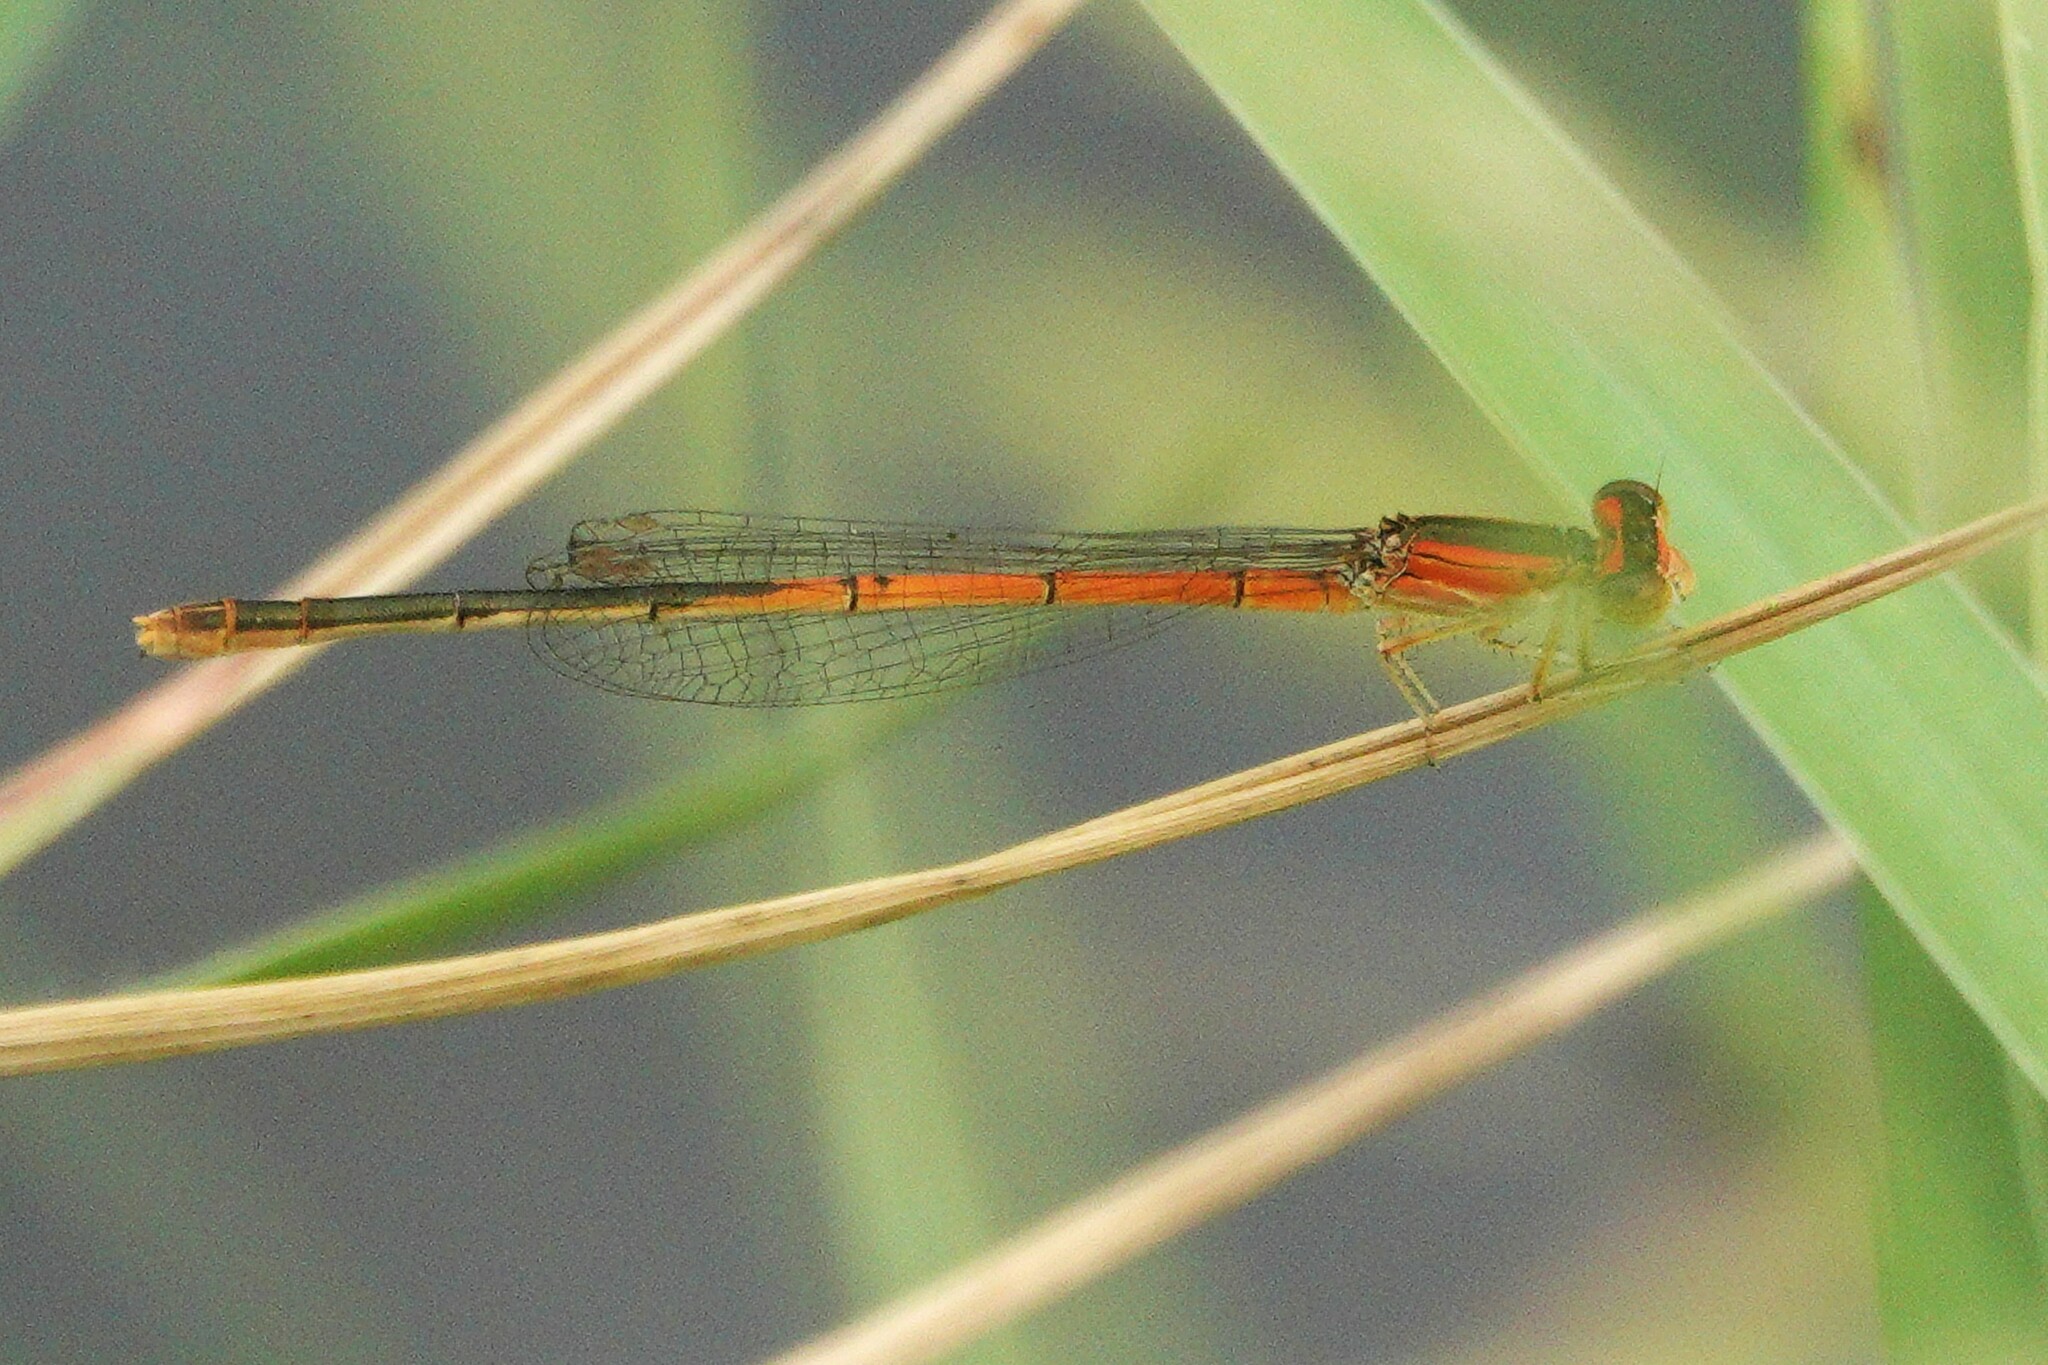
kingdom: Animalia
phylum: Arthropoda
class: Insecta
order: Odonata
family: Coenagrionidae
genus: Ischnura
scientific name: Ischnura hastata
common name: Citrine forktail
